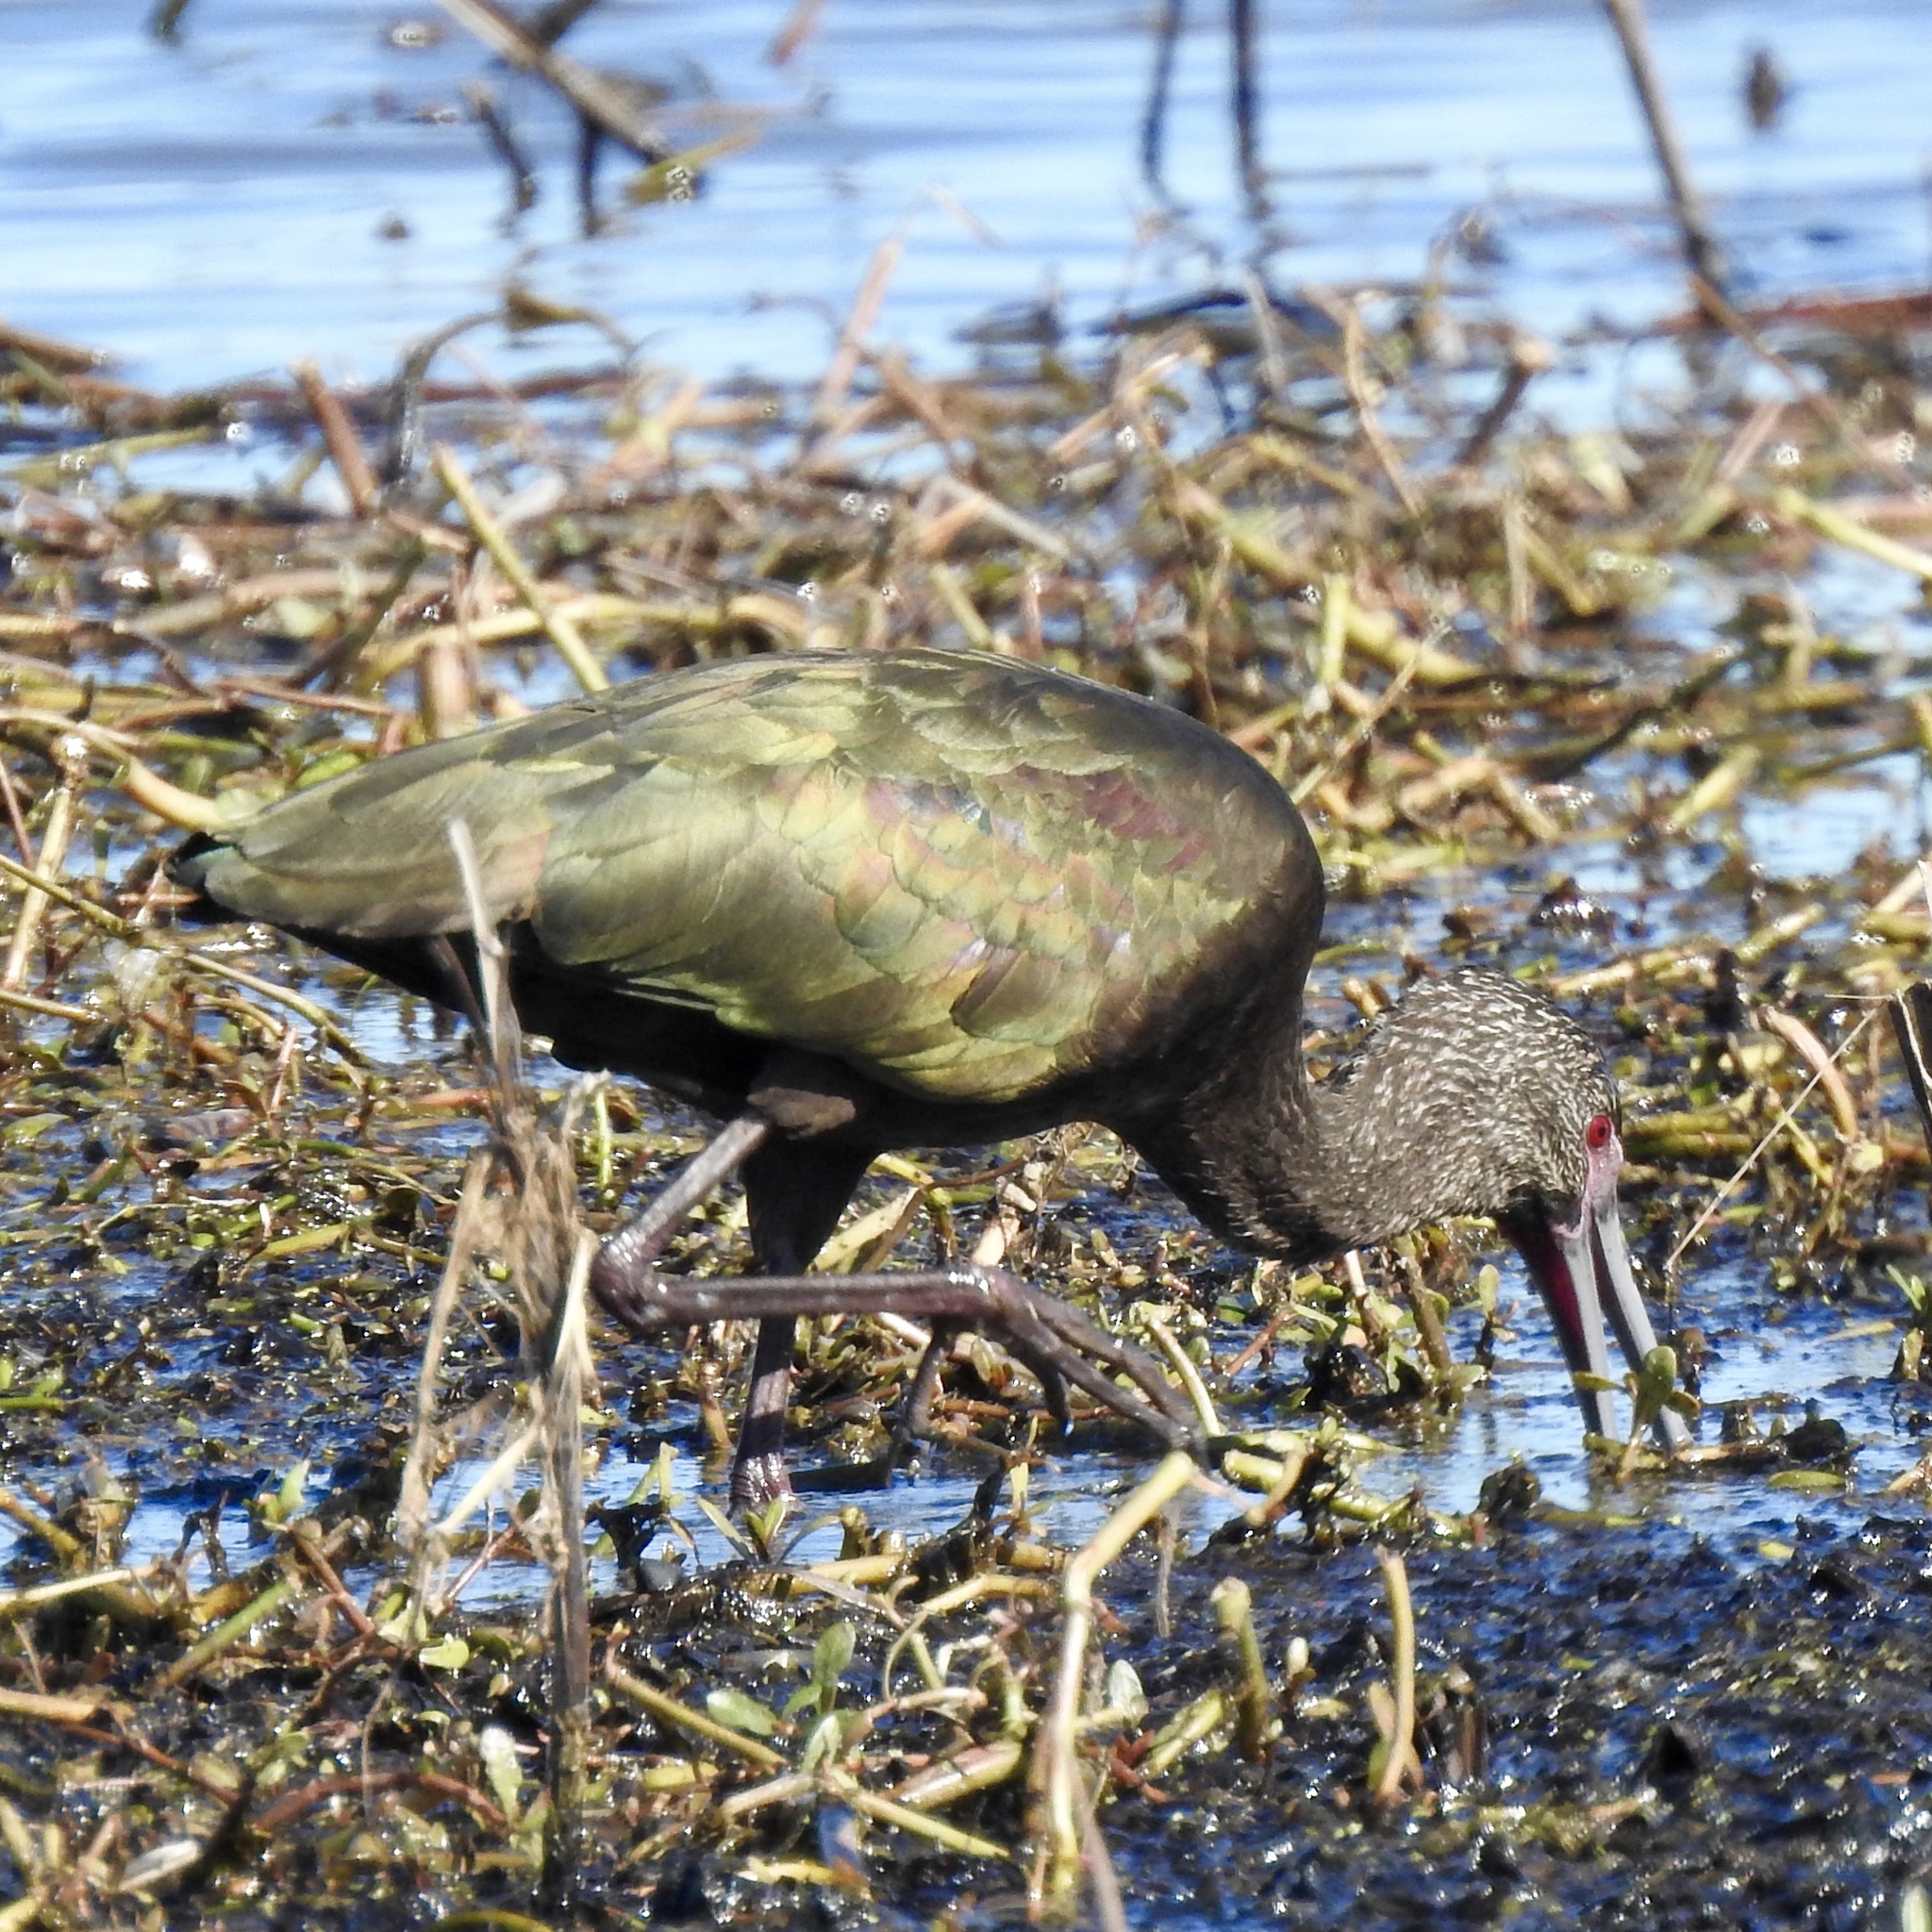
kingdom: Animalia
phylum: Chordata
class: Aves
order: Pelecaniformes
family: Threskiornithidae
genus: Plegadis
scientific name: Plegadis chihi
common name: White-faced ibis
